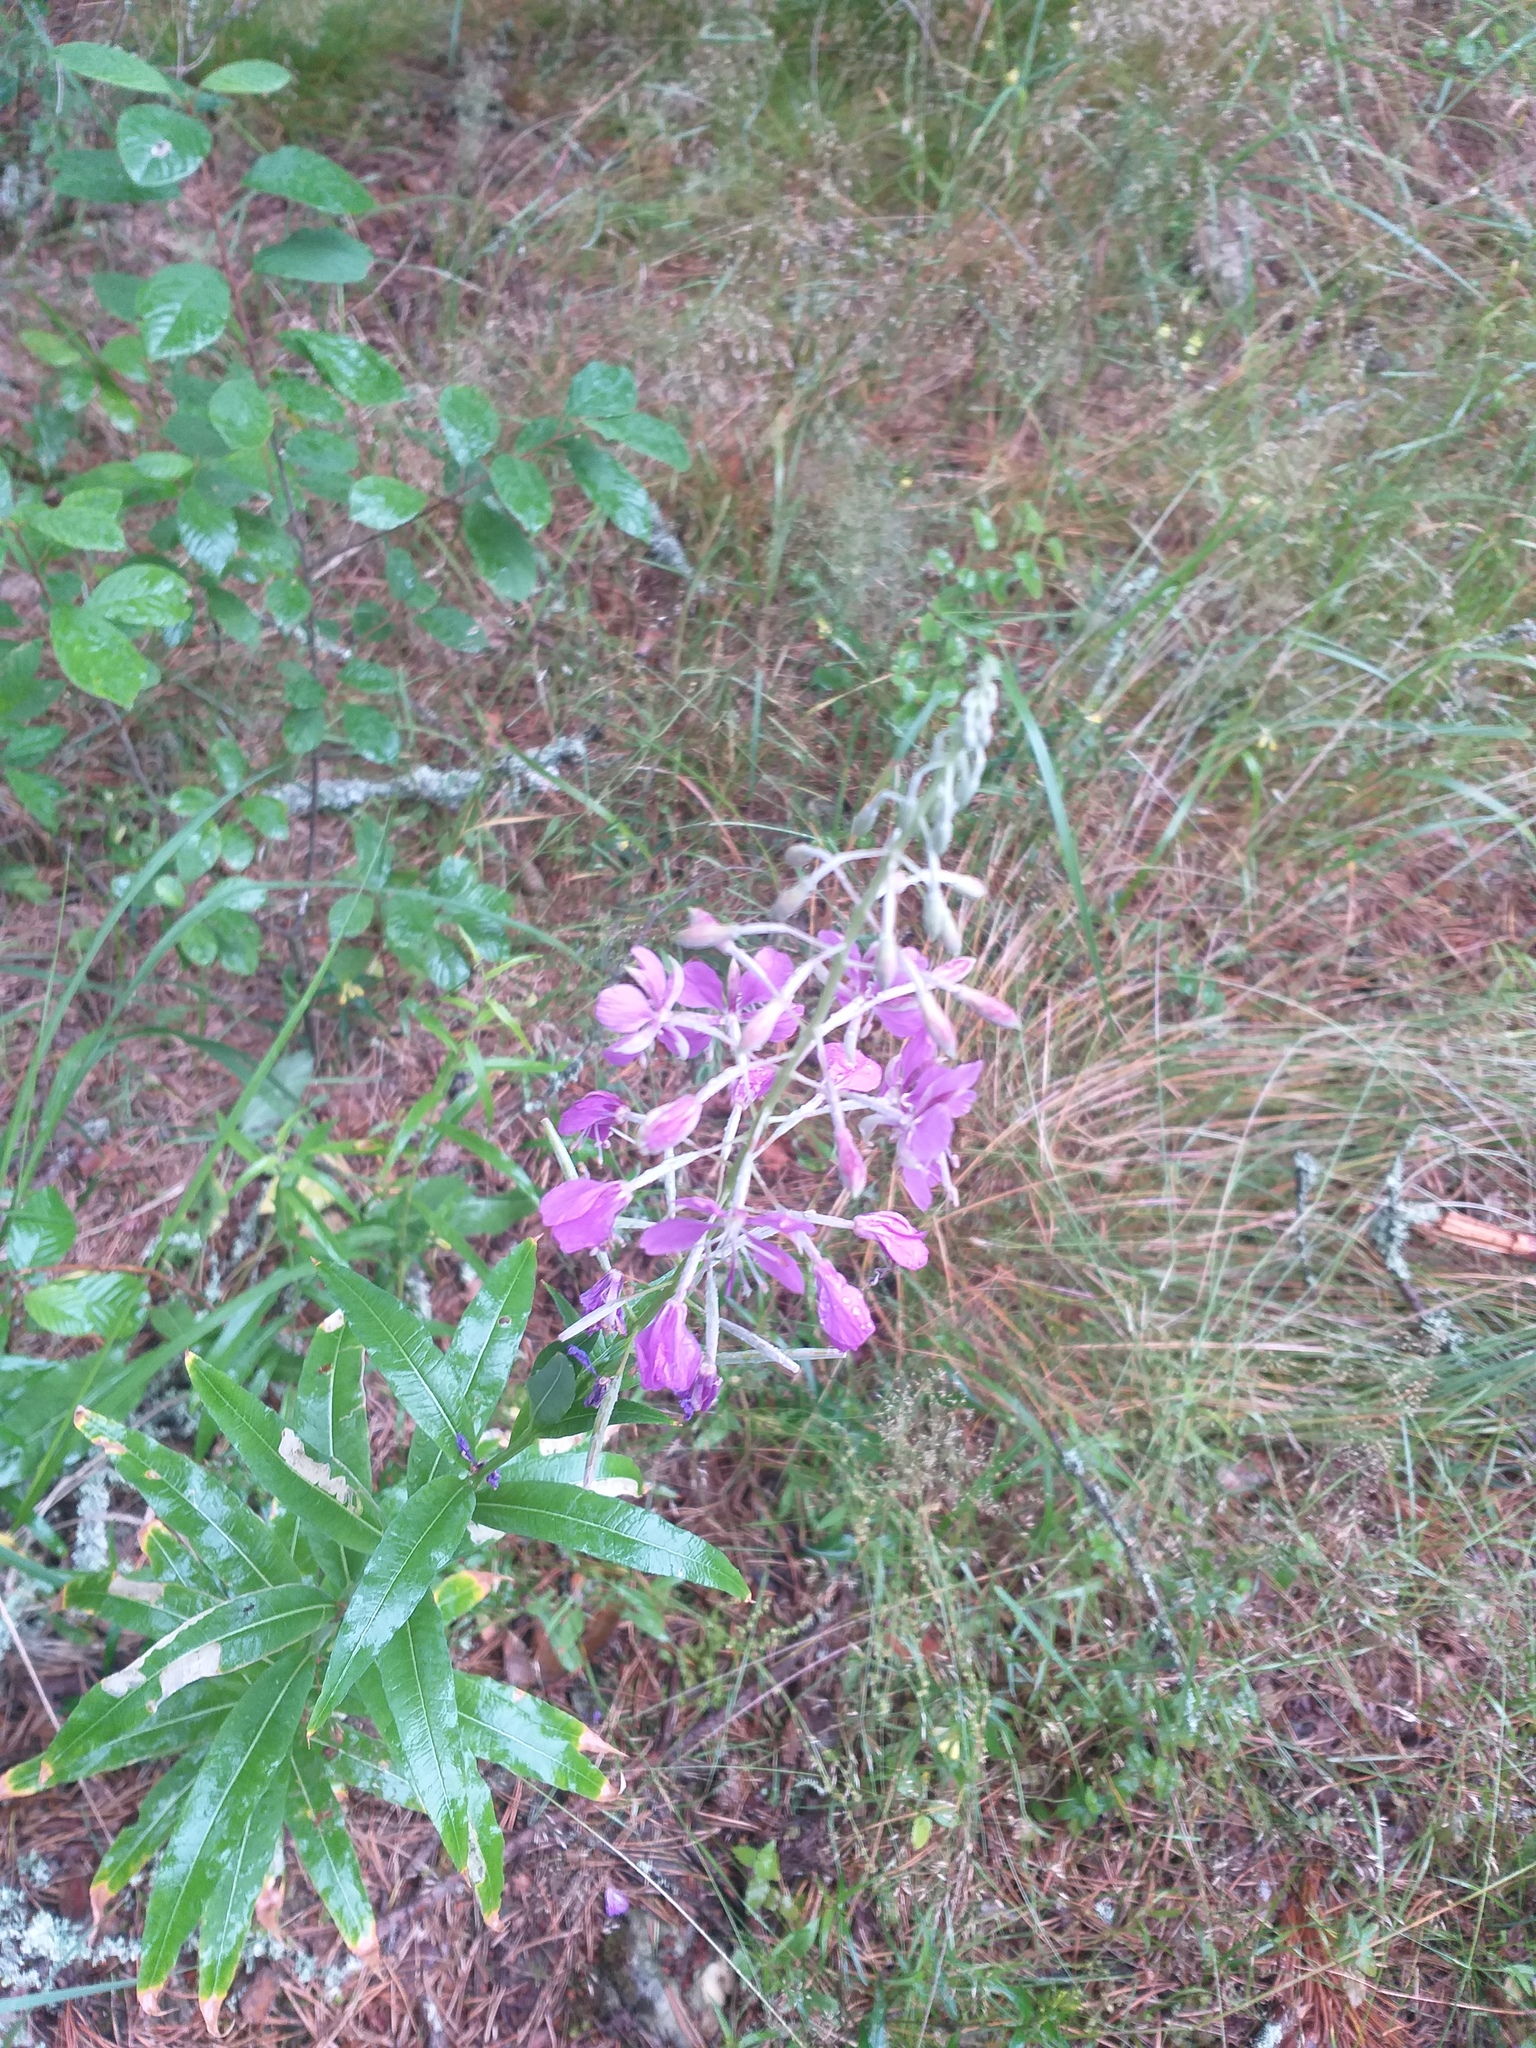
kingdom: Plantae
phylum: Tracheophyta
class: Magnoliopsida
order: Myrtales
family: Onagraceae
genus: Chamaenerion
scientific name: Chamaenerion angustifolium
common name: Fireweed
